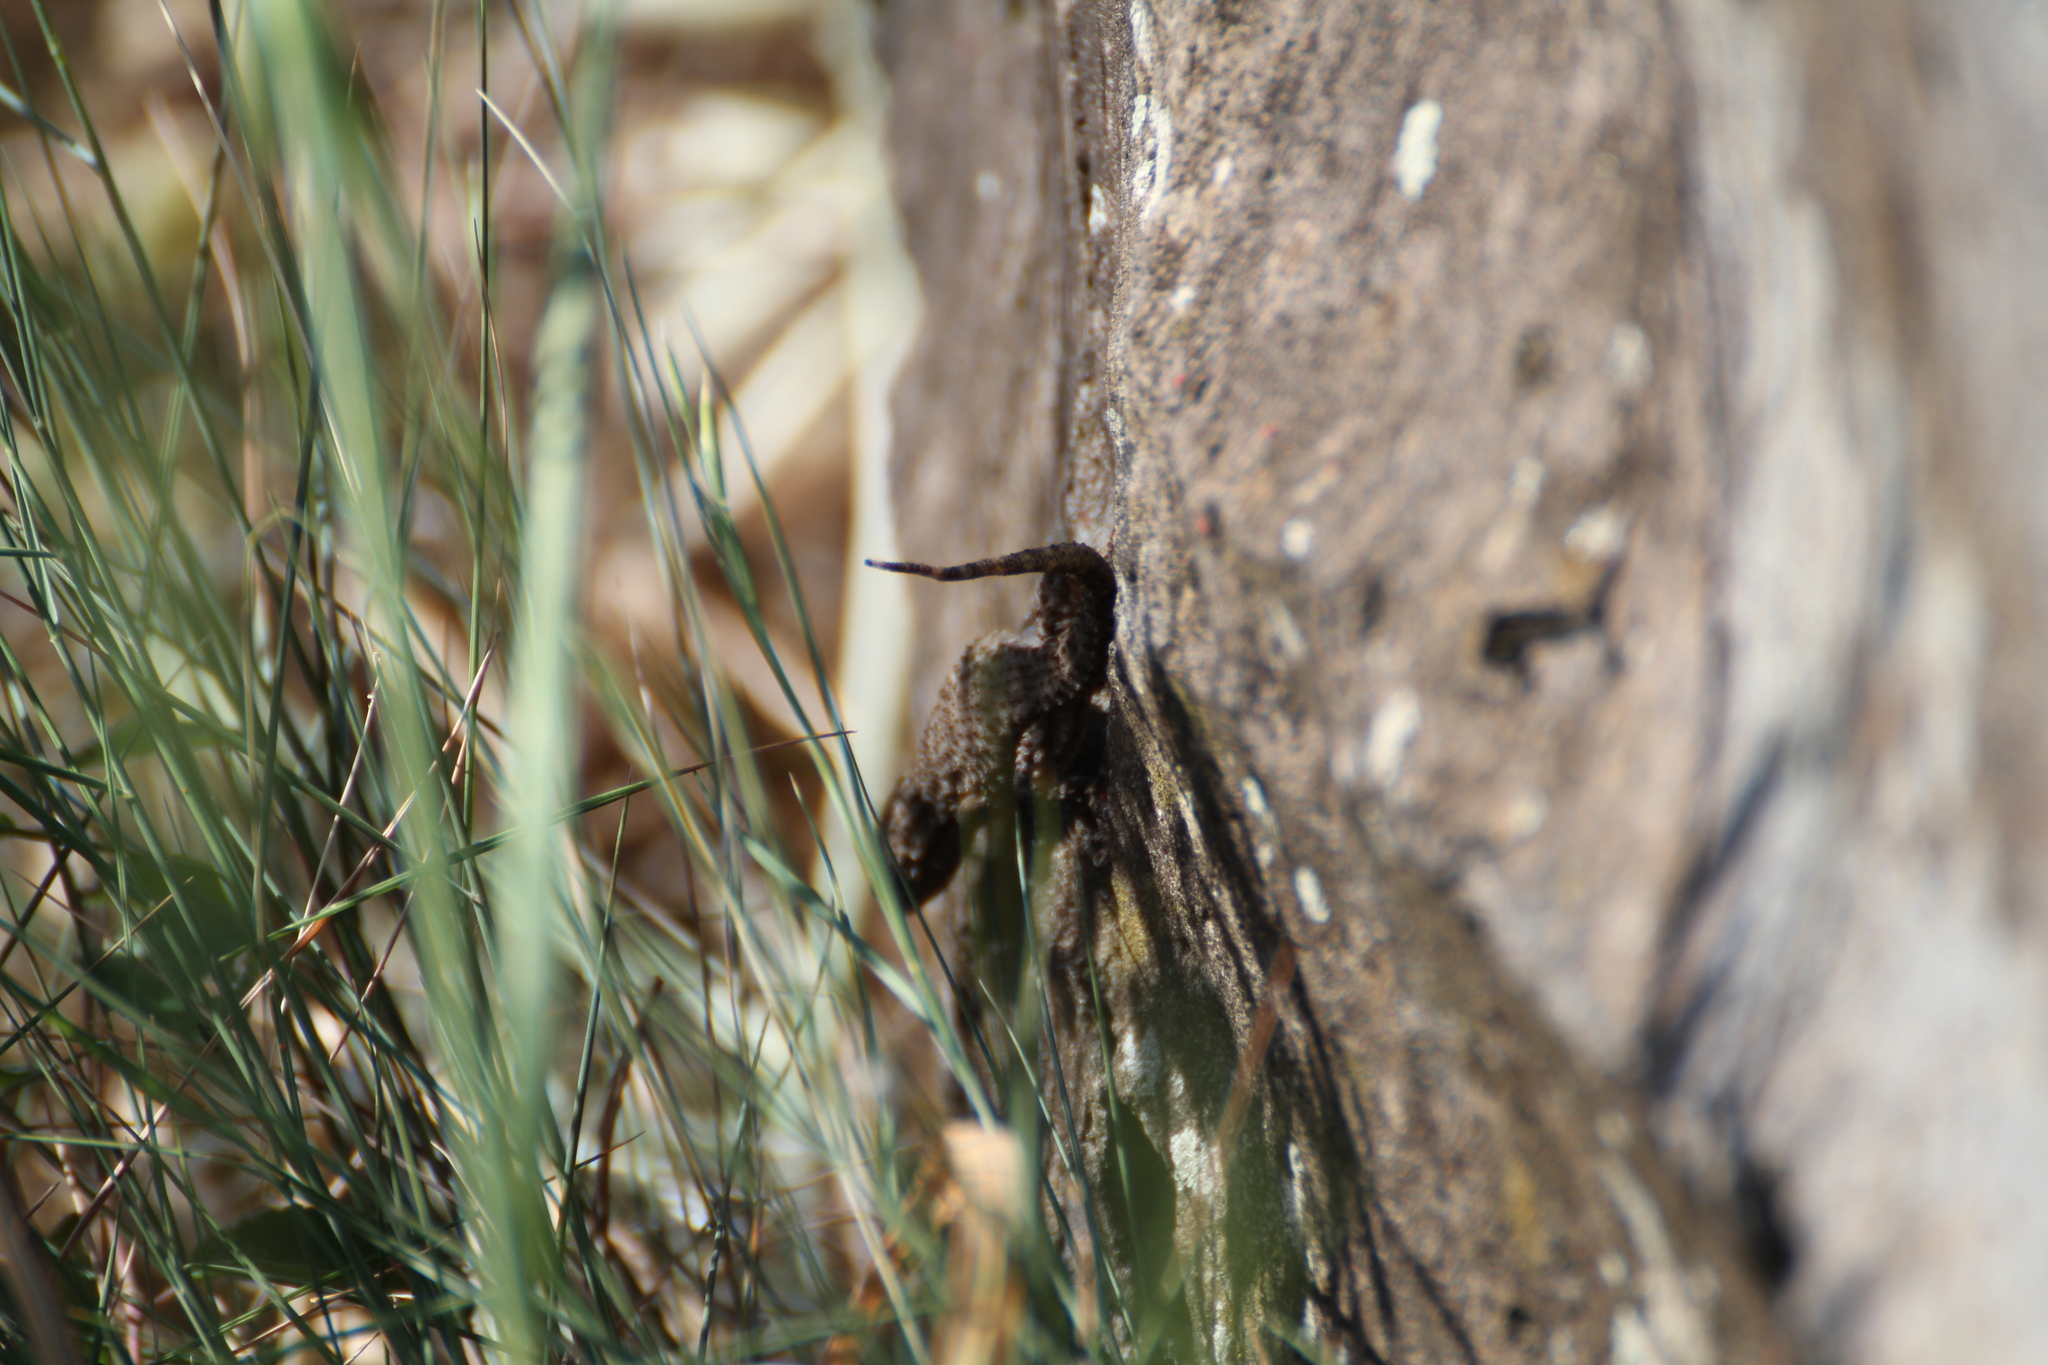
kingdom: Animalia
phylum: Chordata
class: Squamata
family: Phyllodactylidae
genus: Tarentola
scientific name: Tarentola mauritanica
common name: Moorish gecko
